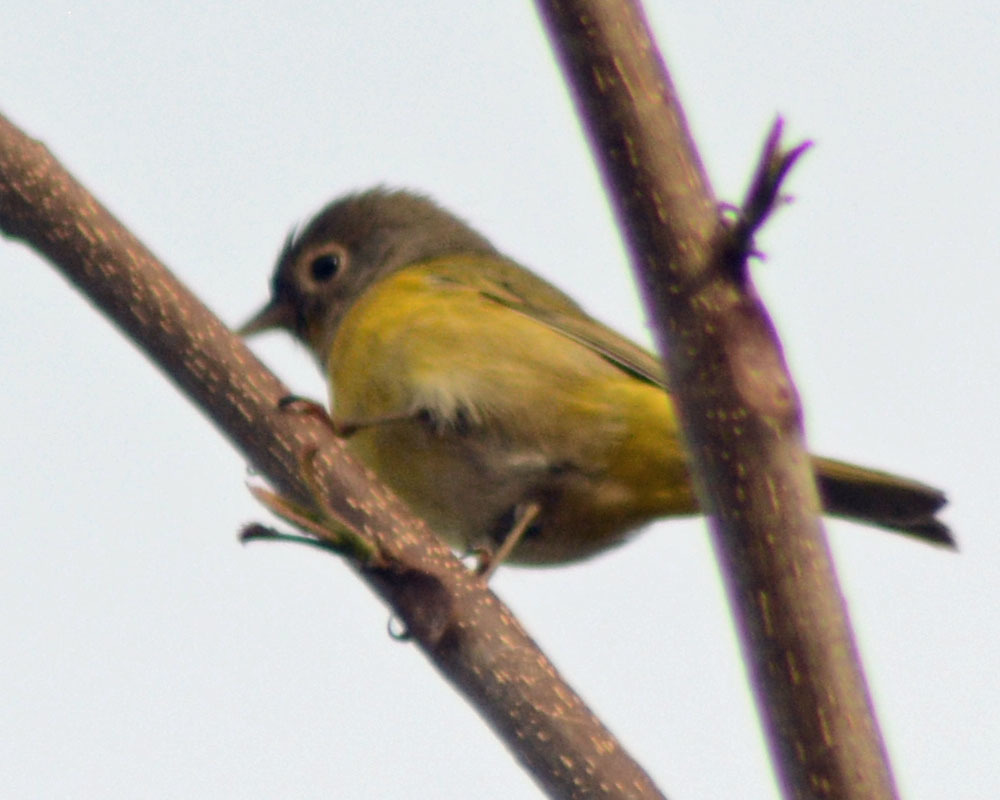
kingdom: Animalia
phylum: Chordata
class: Aves
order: Passeriformes
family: Parulidae
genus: Leiothlypis
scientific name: Leiothlypis ruficapilla
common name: Nashville warbler
